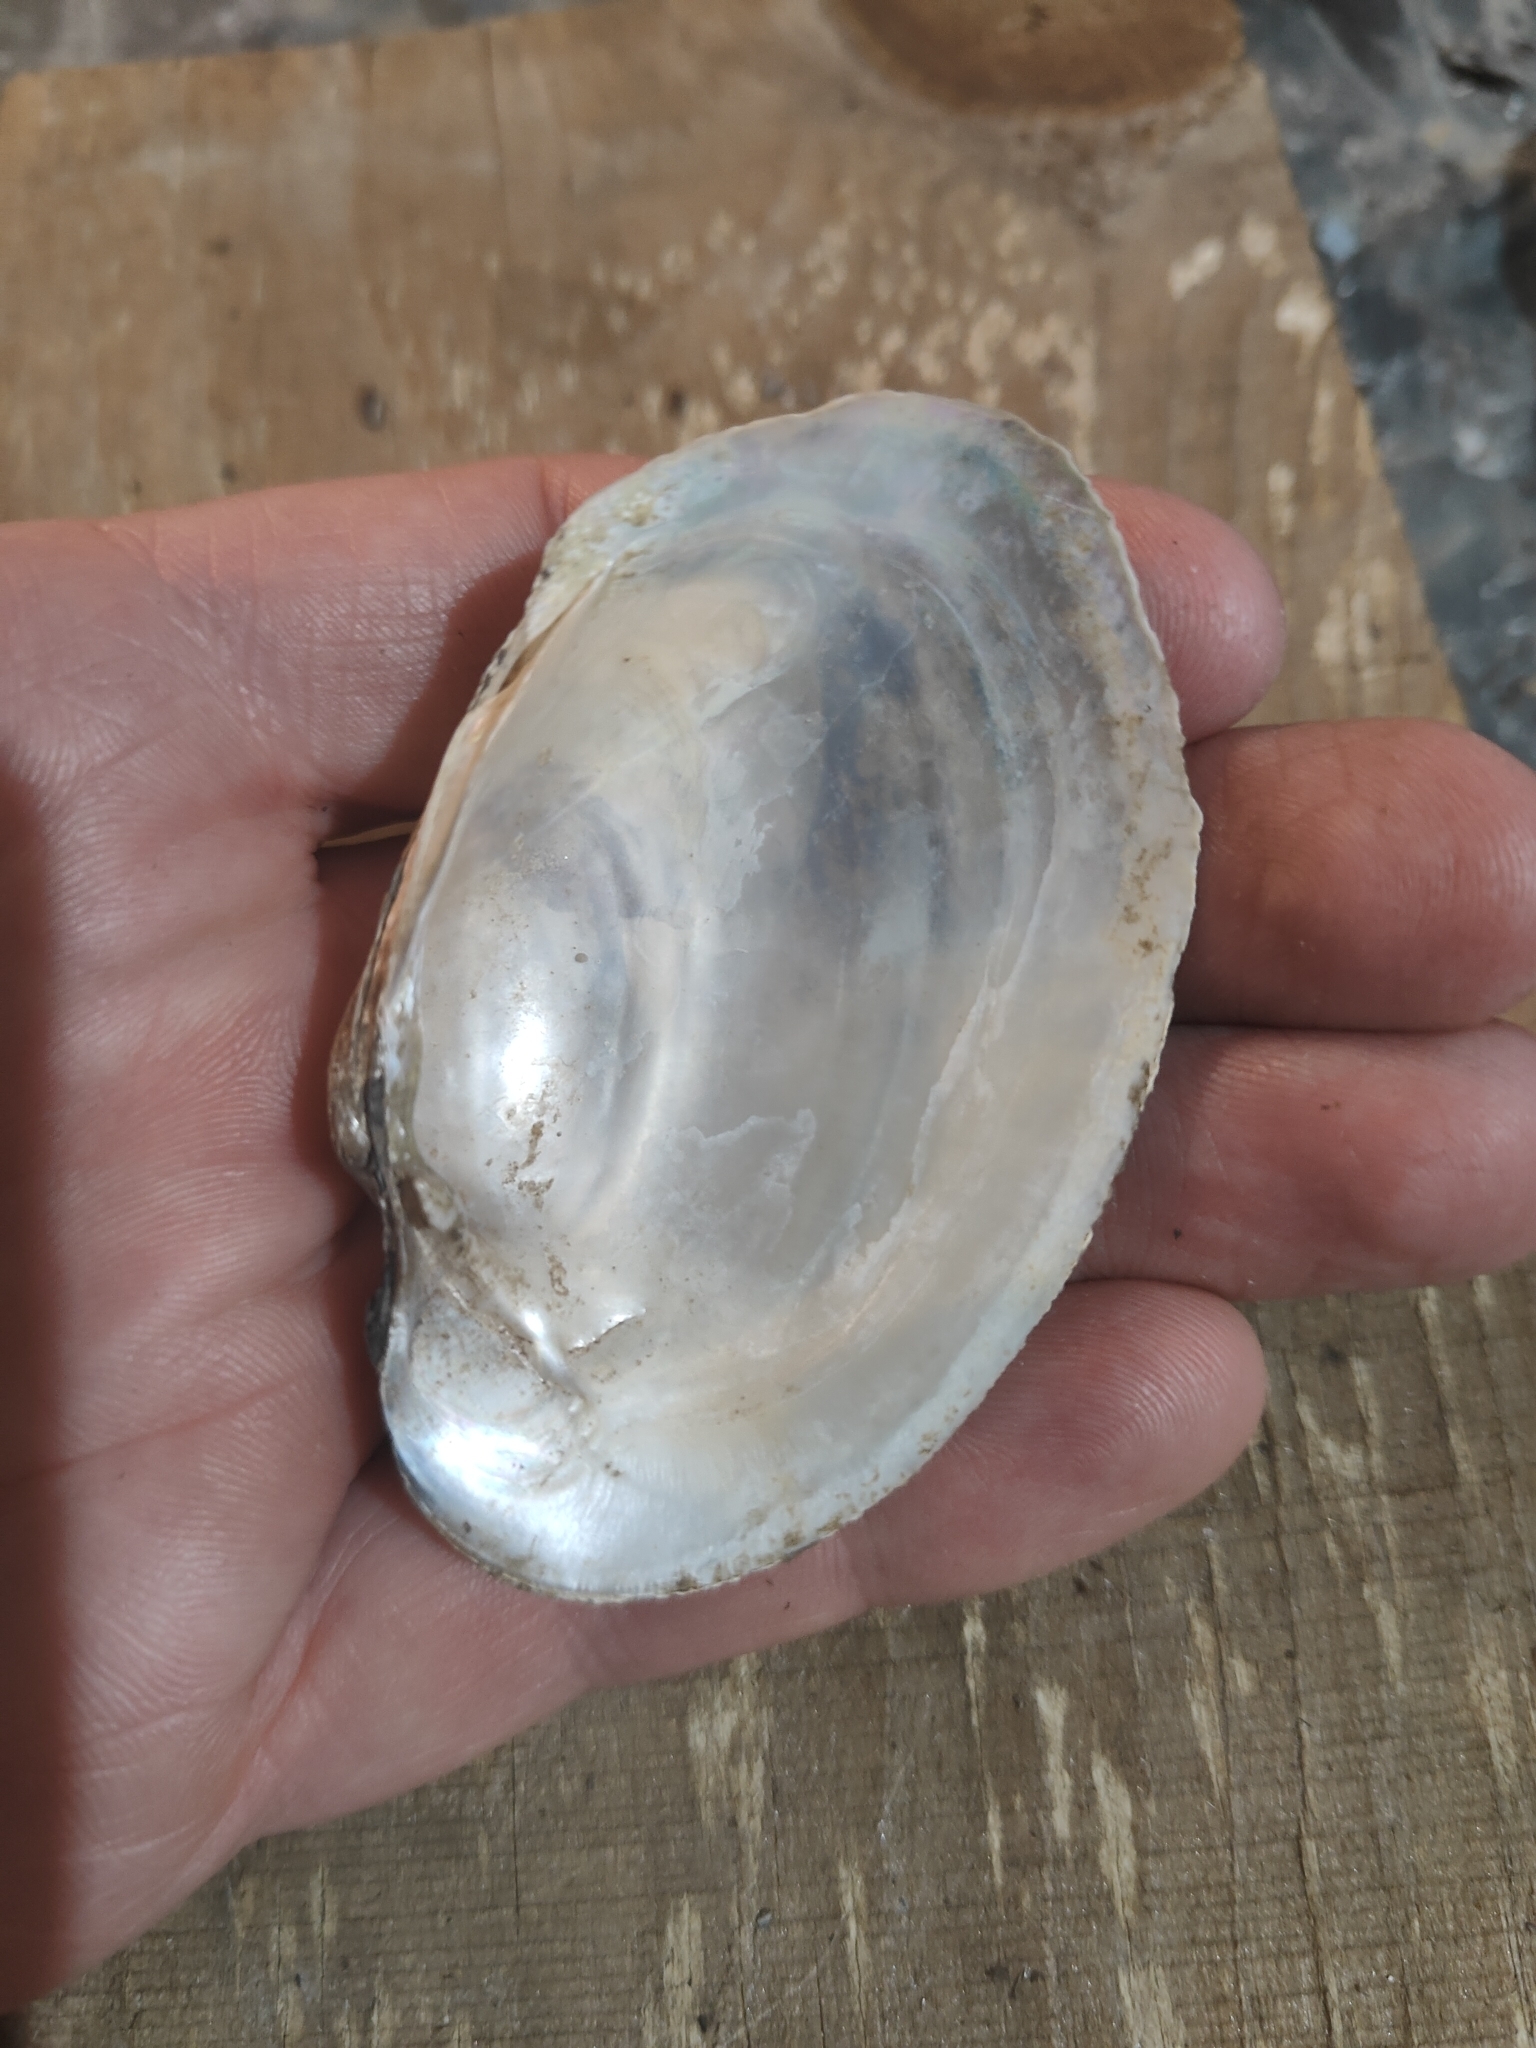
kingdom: Animalia
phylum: Mollusca
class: Bivalvia
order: Unionida
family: Unionidae
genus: Lampsilis
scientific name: Lampsilis cardium
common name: Plain pocketbook
